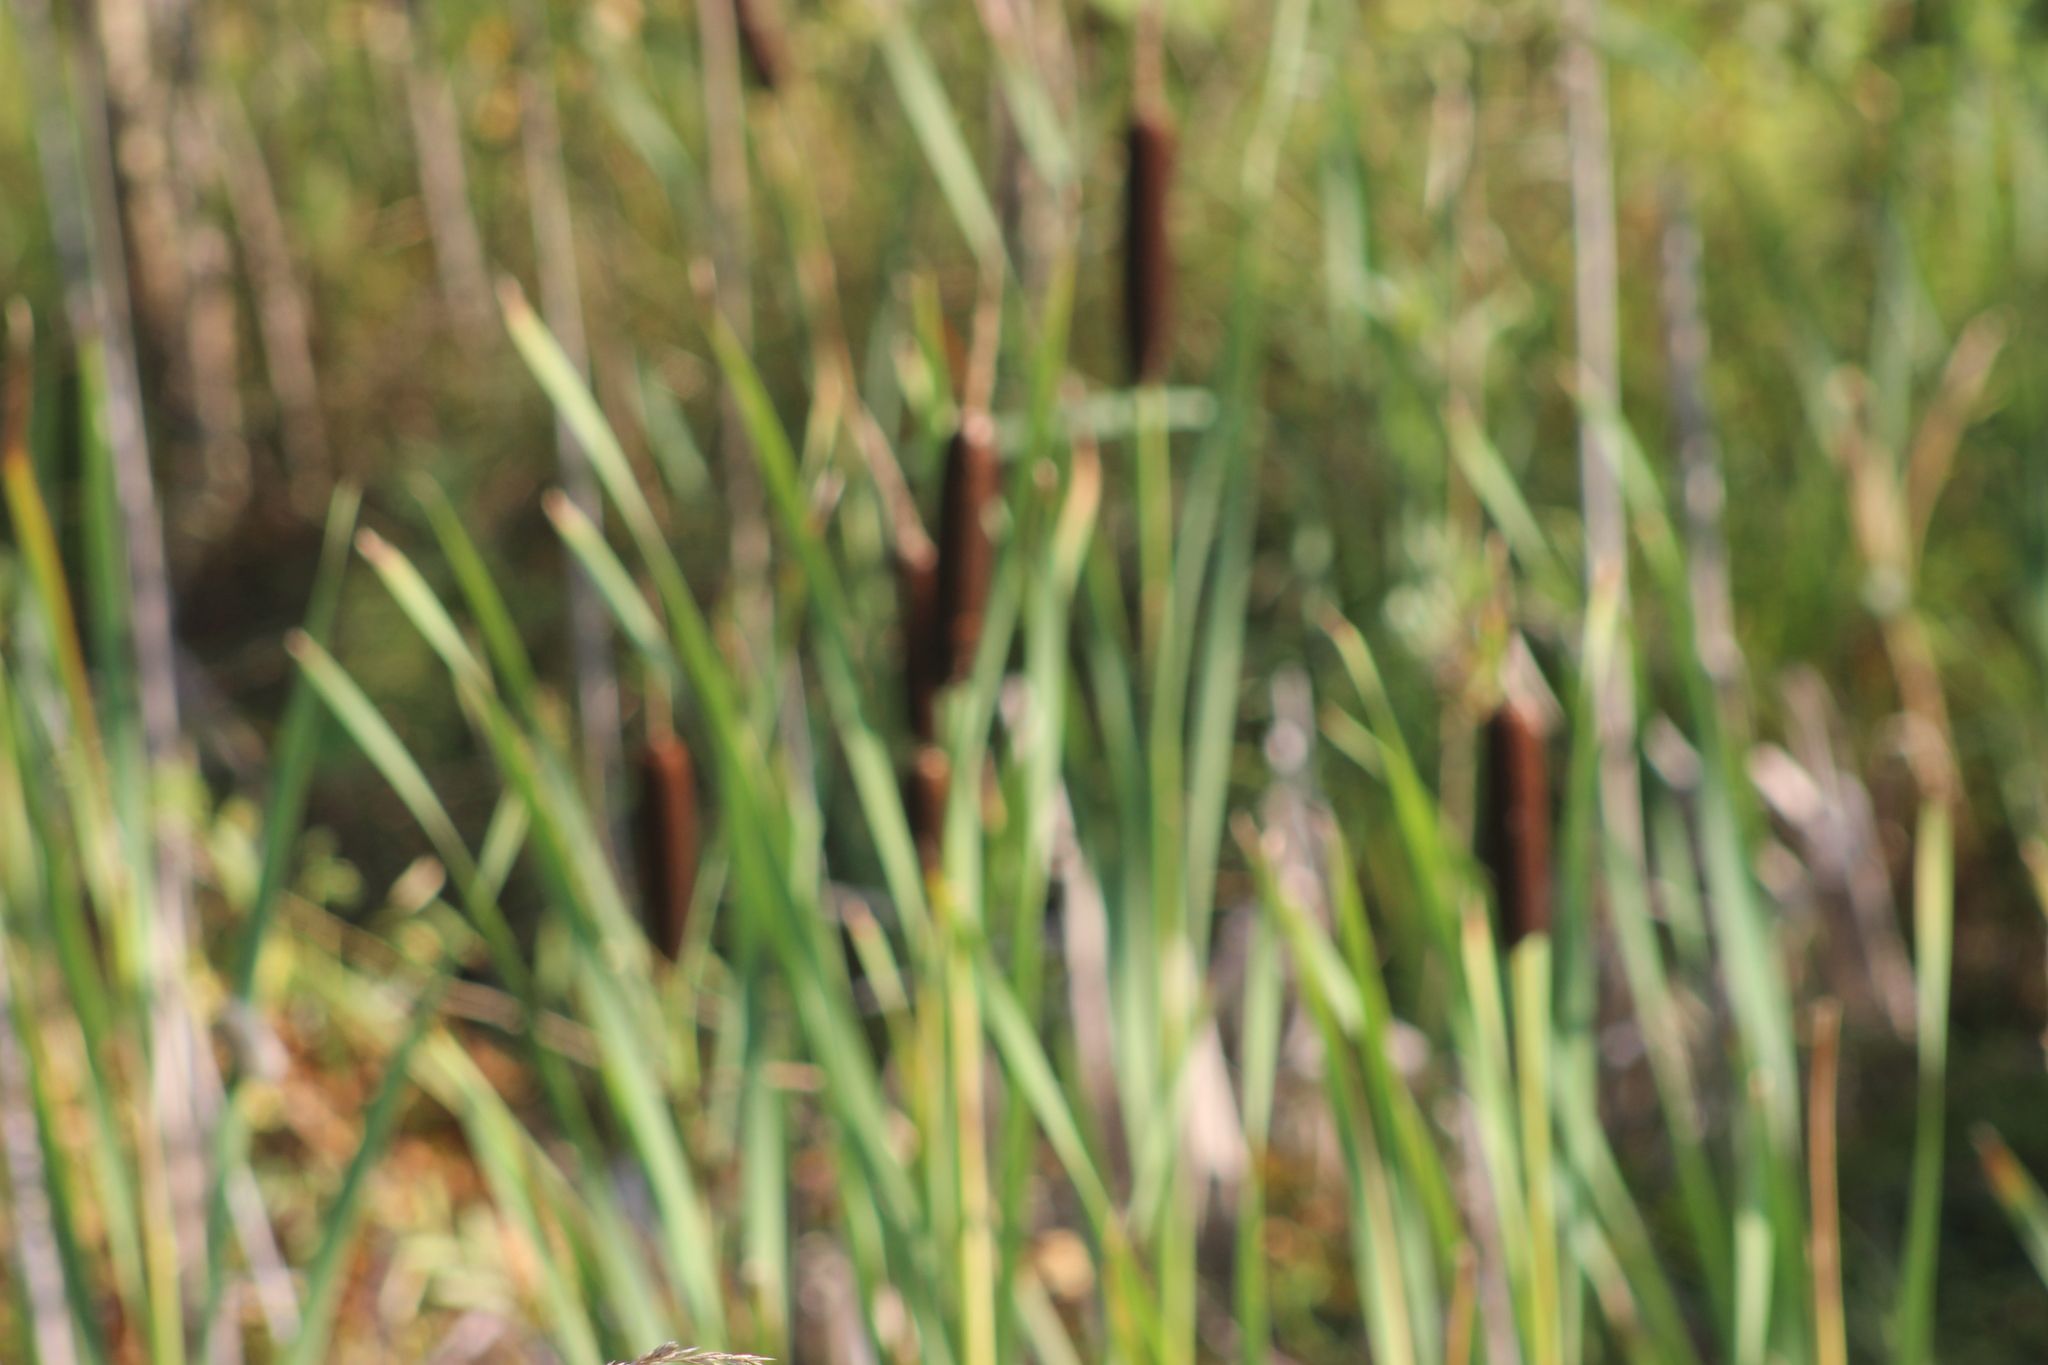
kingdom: Plantae
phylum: Tracheophyta
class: Liliopsida
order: Poales
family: Typhaceae
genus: Typha
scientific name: Typha latifolia
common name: Broadleaf cattail
